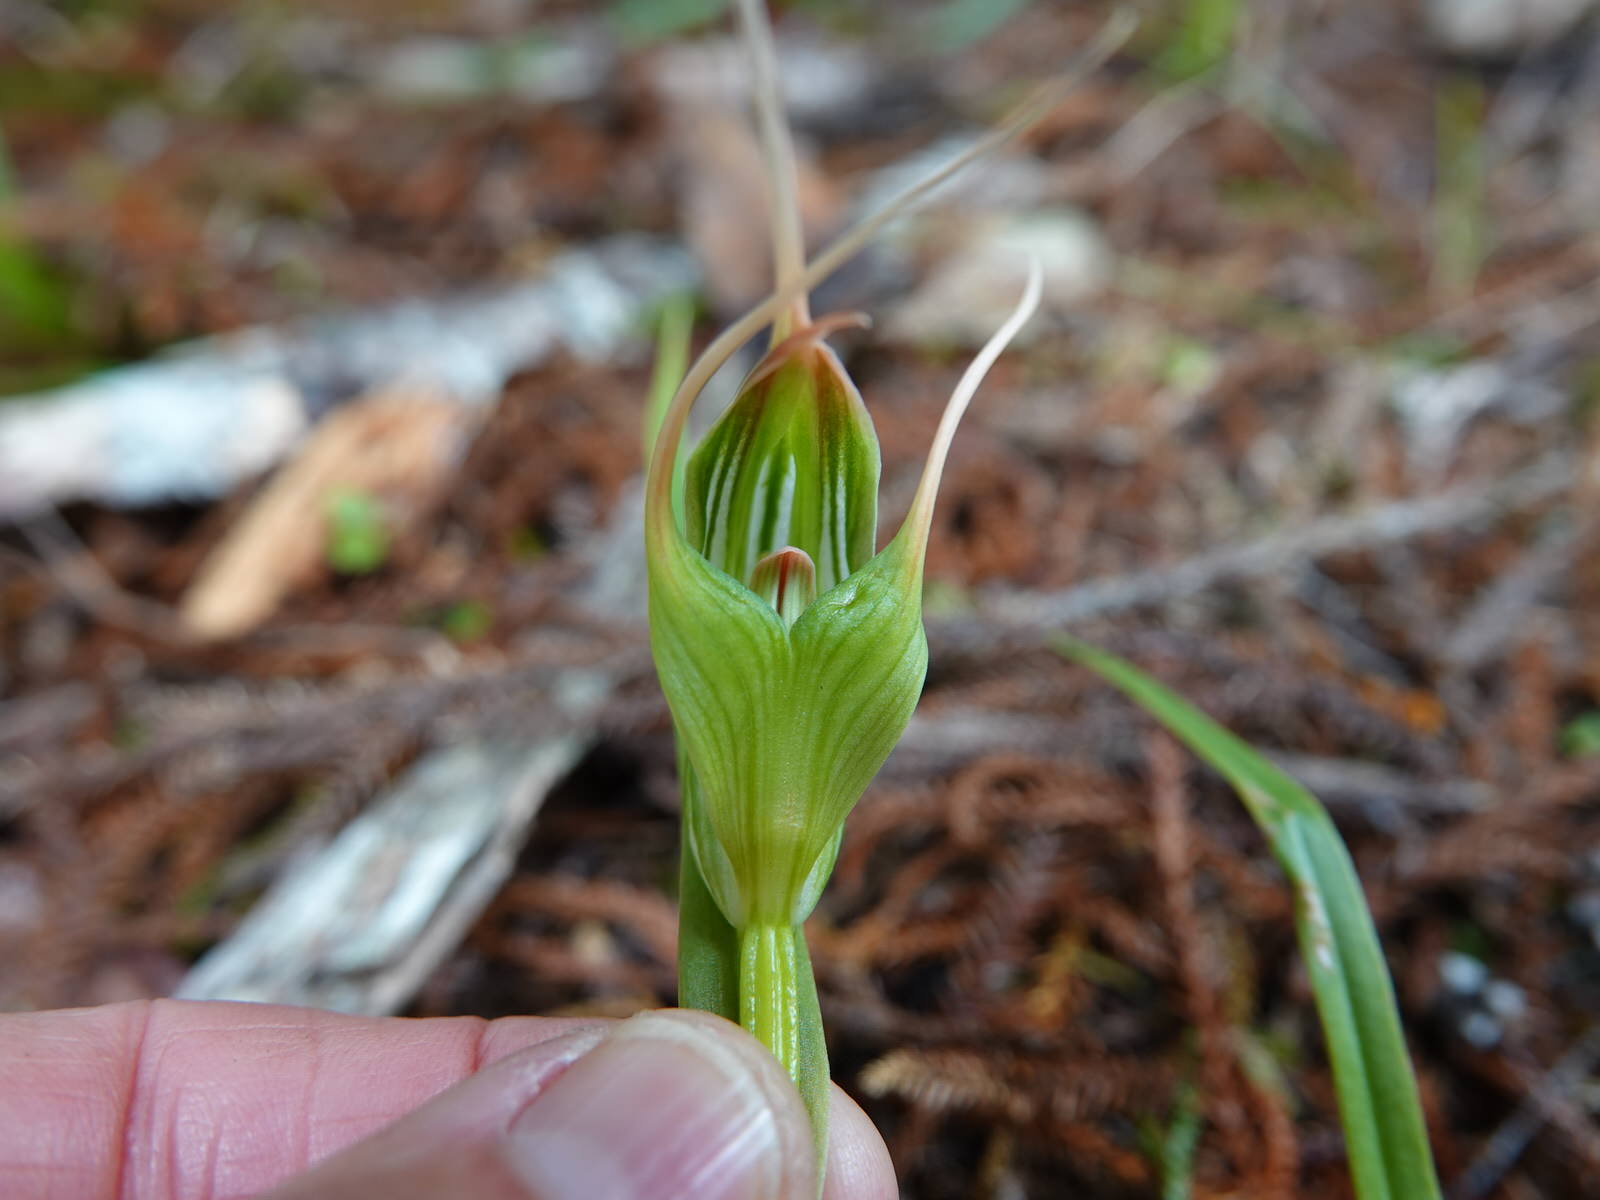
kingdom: Plantae
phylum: Tracheophyta
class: Liliopsida
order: Asparagales
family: Orchidaceae
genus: Pterostylis
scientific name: Pterostylis banksii
